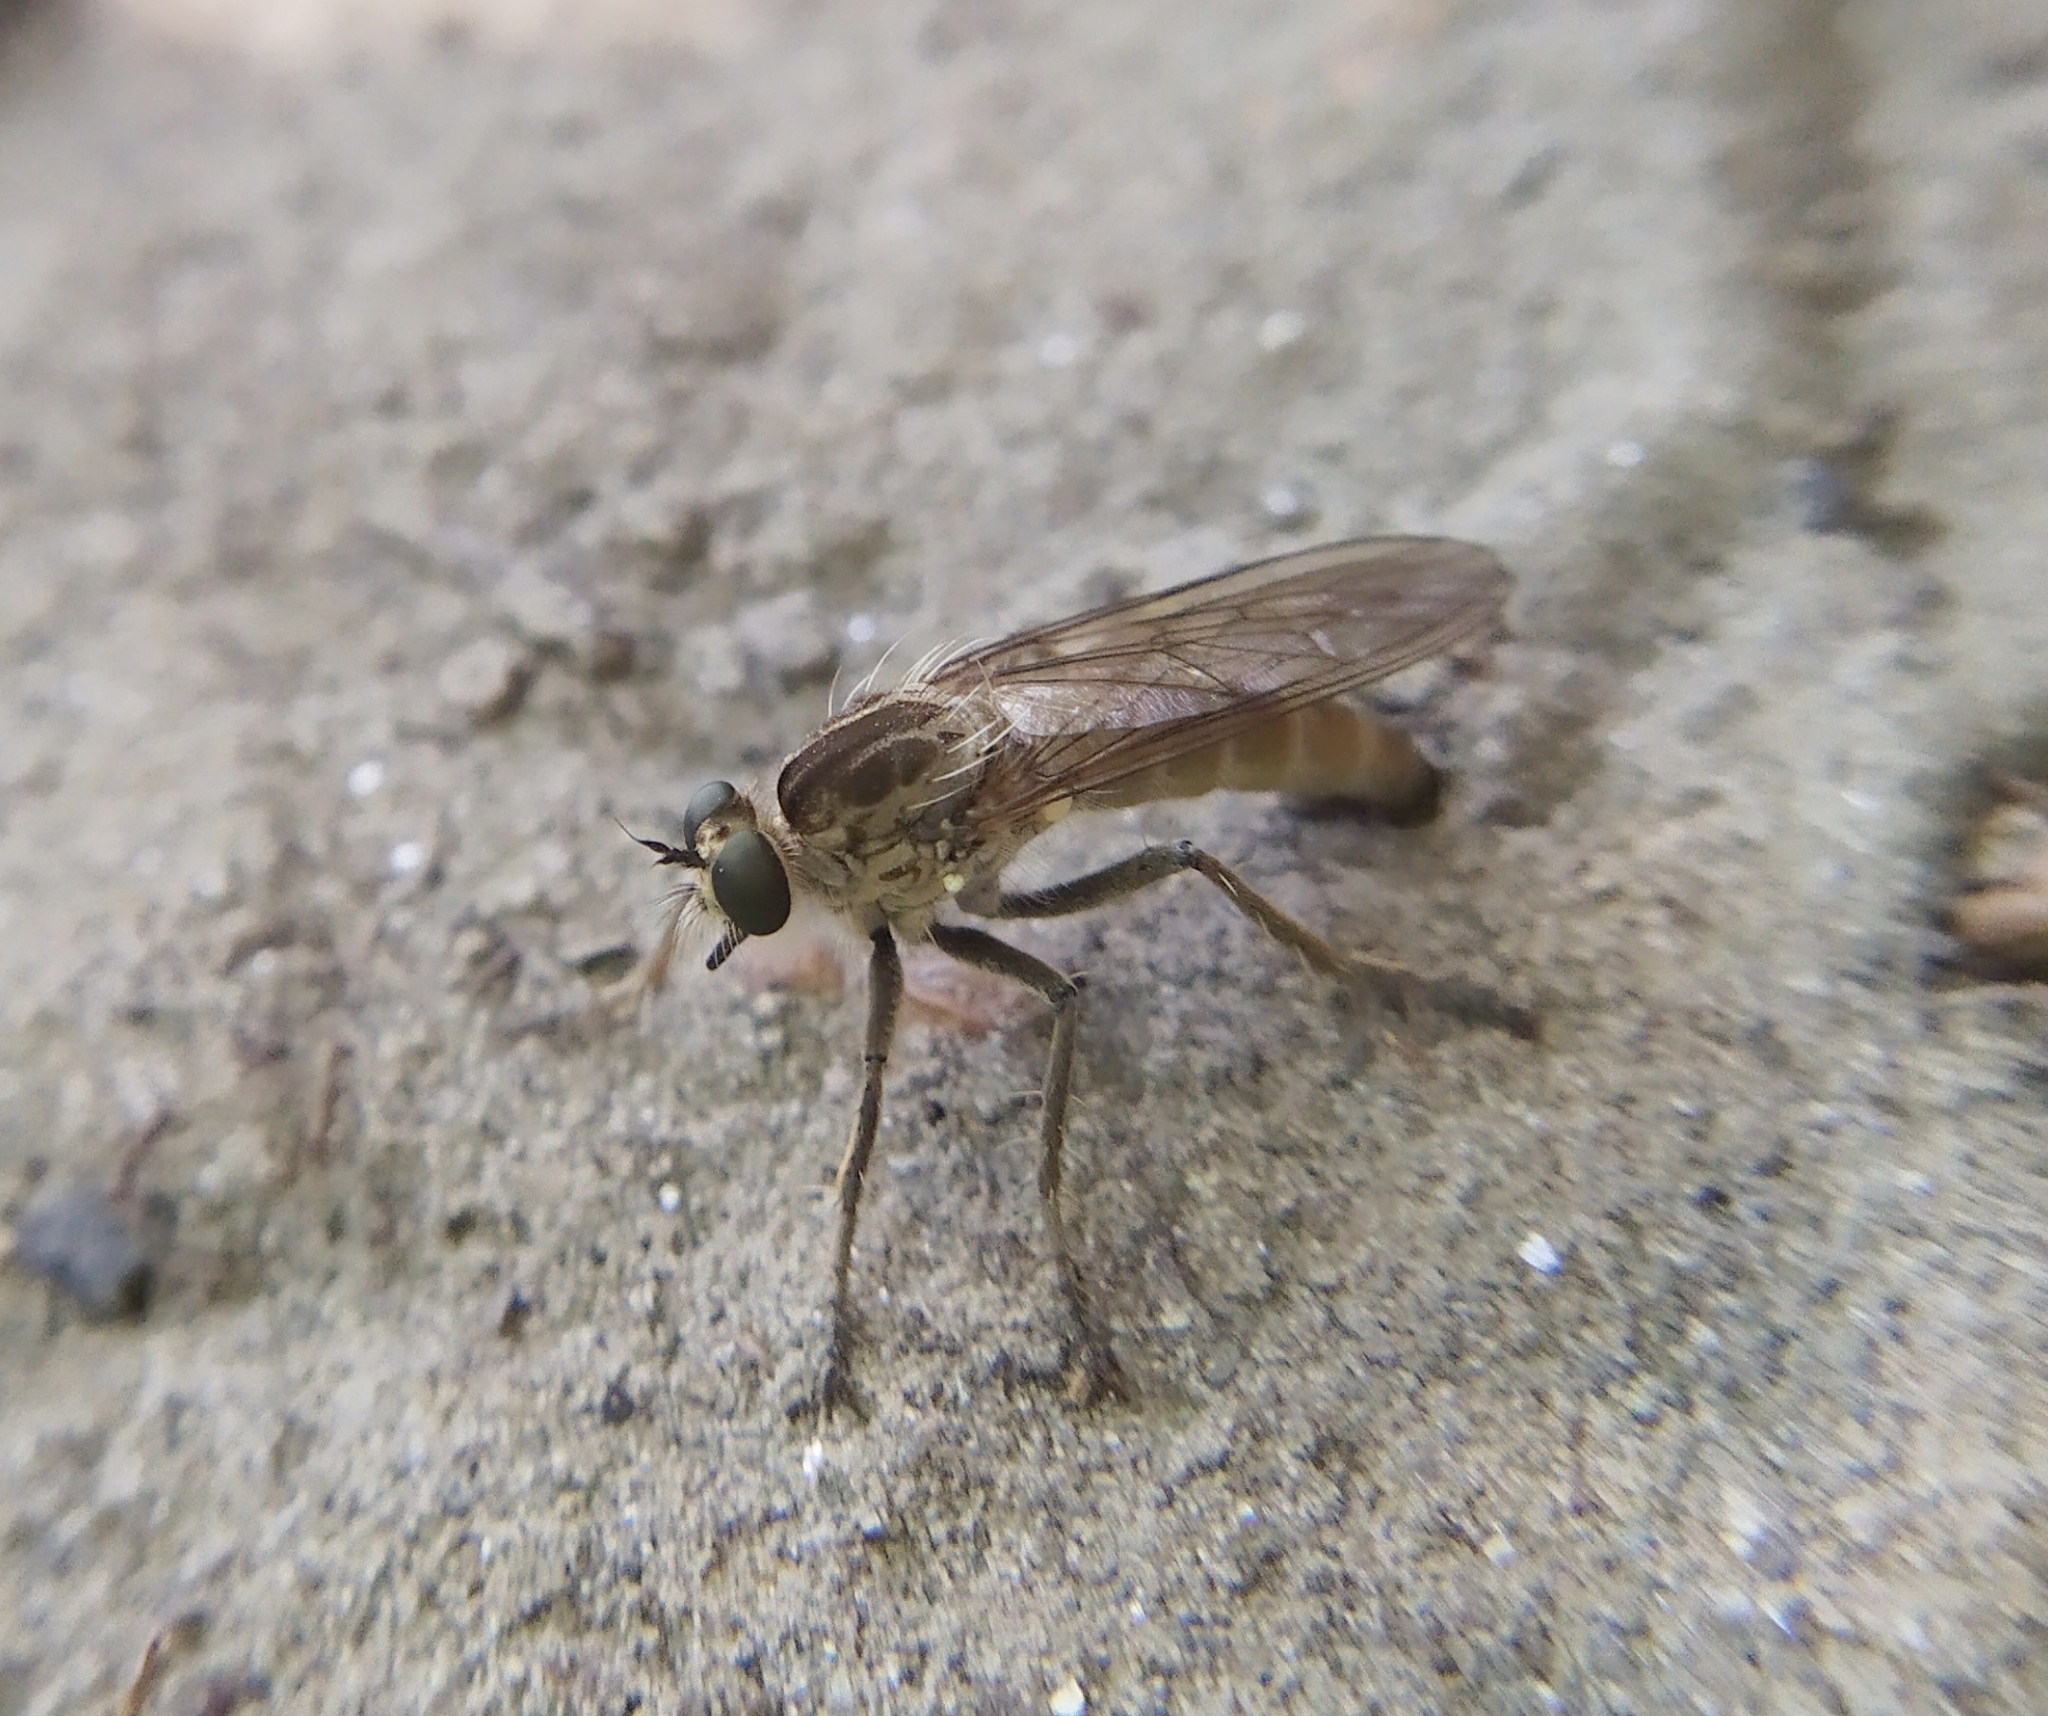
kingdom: Animalia
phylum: Arthropoda
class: Insecta
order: Diptera
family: Asilidae
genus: Philonicus
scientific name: Philonicus albiceps
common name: Dune robberfly
